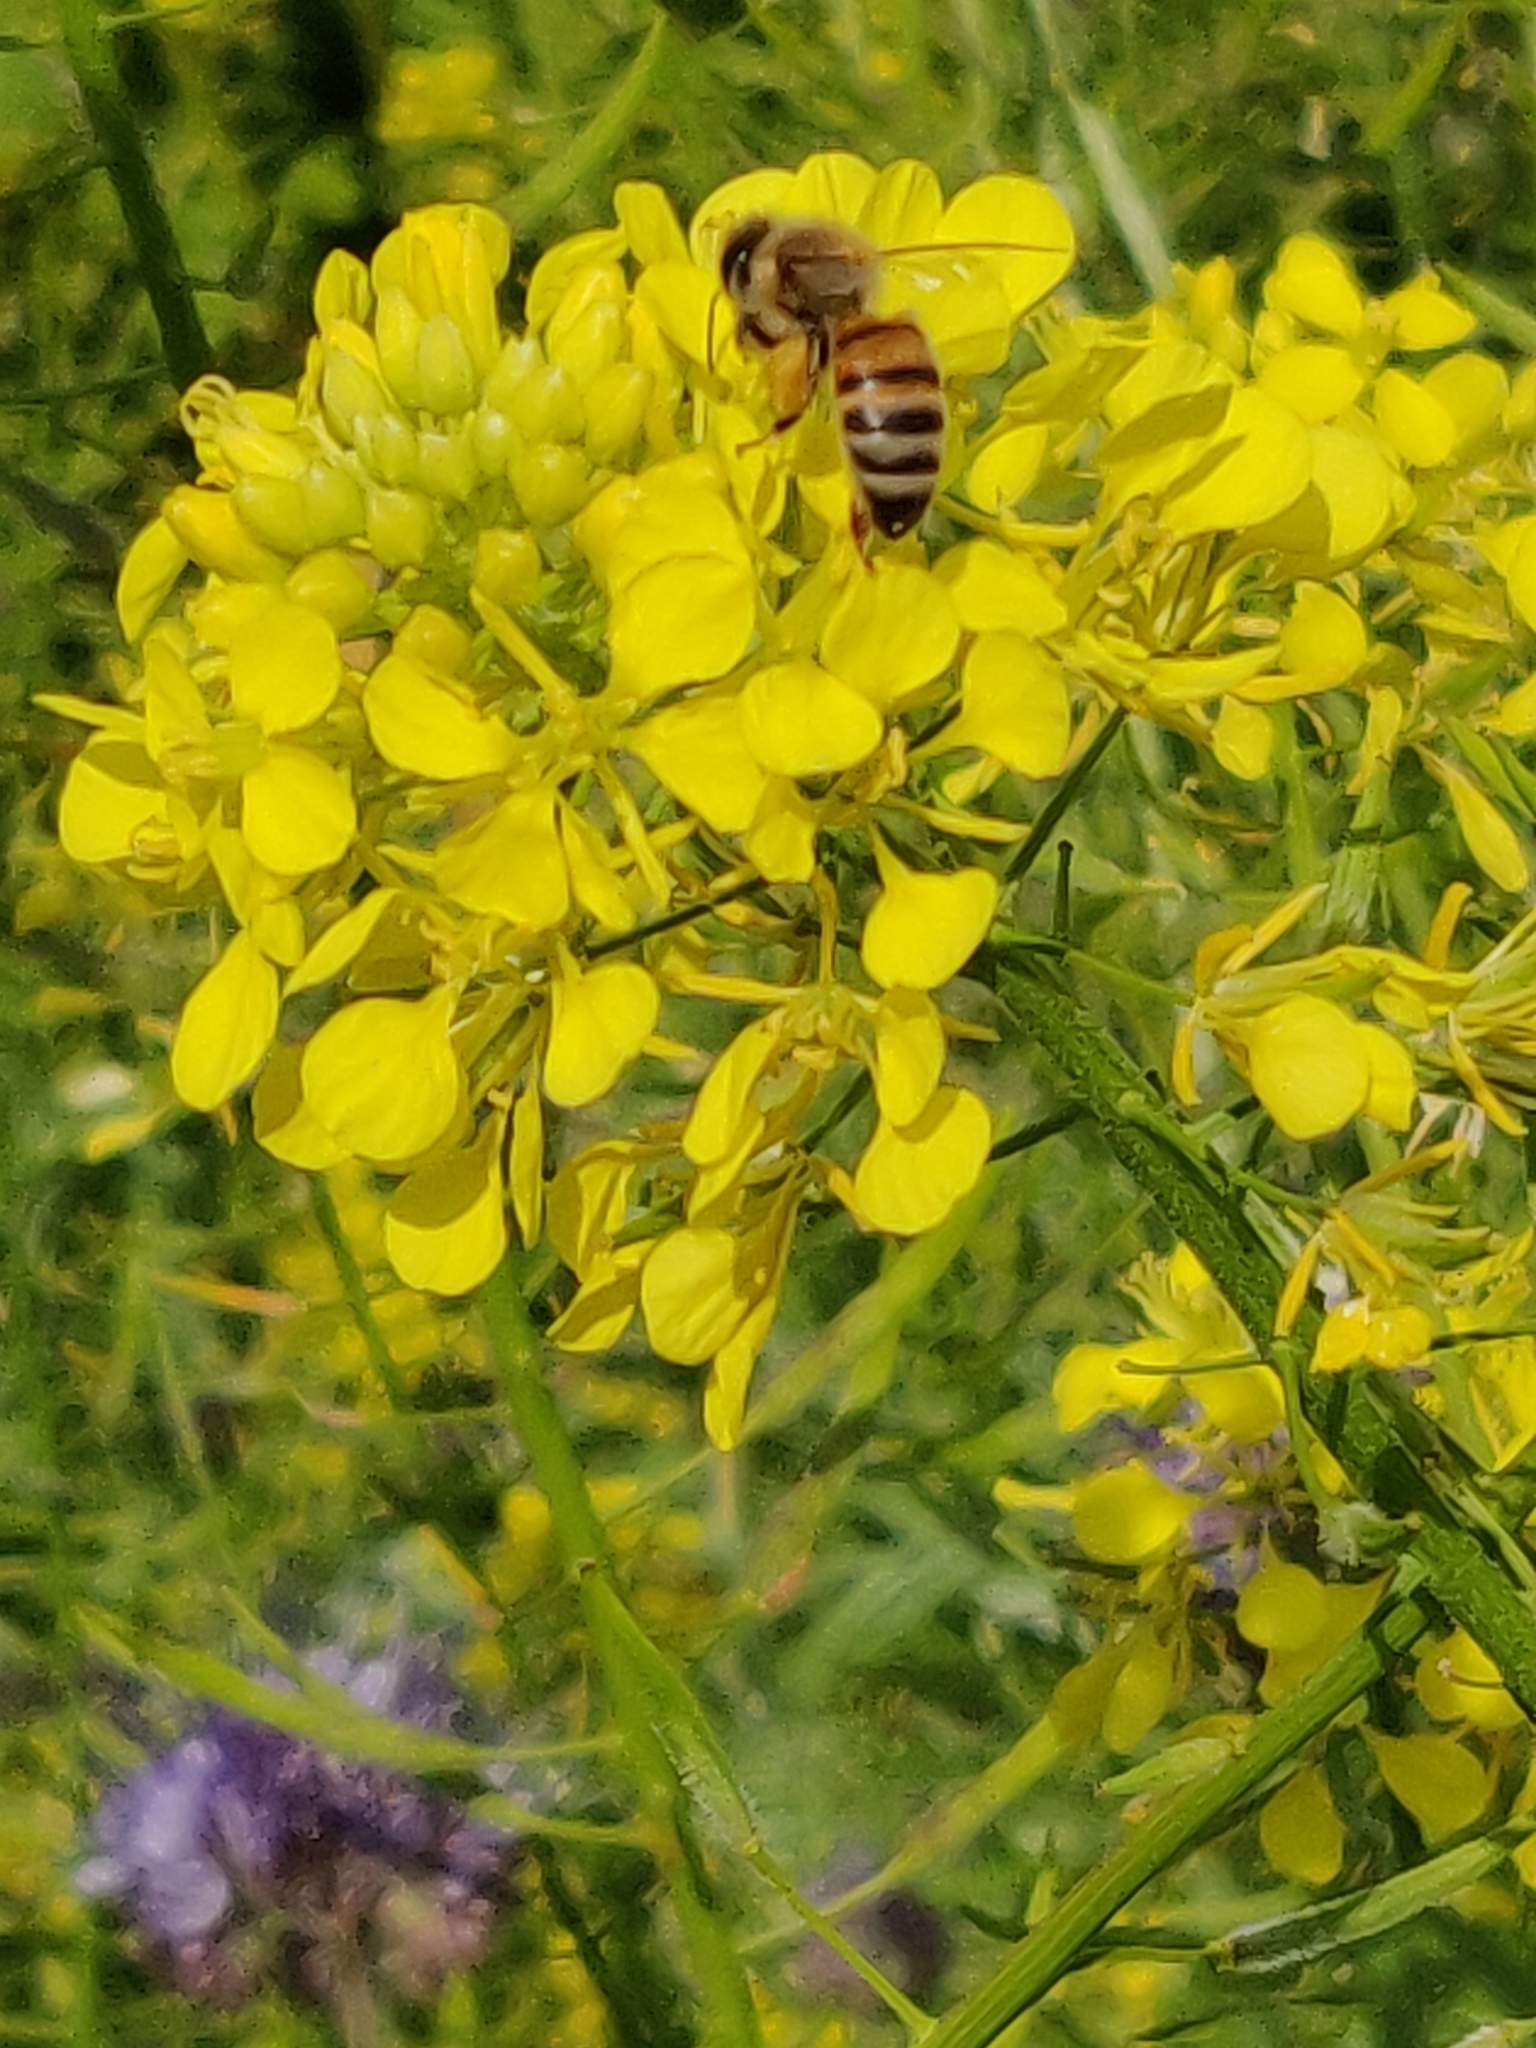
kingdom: Animalia
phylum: Arthropoda
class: Insecta
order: Hymenoptera
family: Apidae
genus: Apis
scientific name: Apis mellifera
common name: Honey bee
